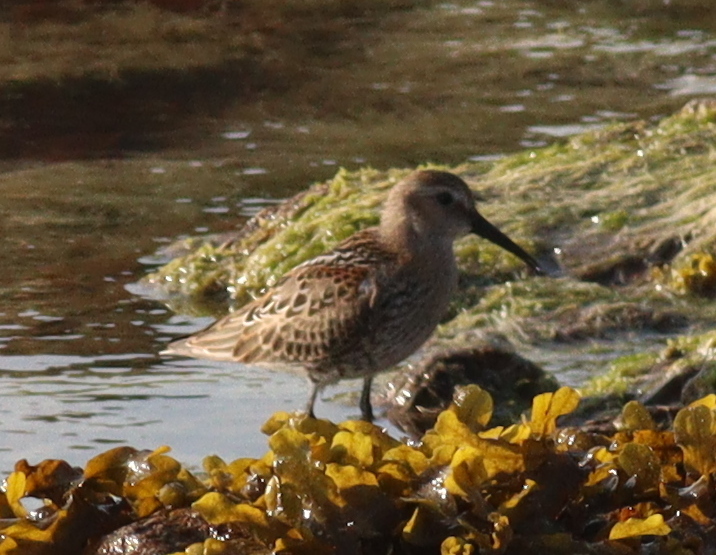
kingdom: Animalia
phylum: Chordata
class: Aves
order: Charadriiformes
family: Scolopacidae
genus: Calidris
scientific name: Calidris alpina
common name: Dunlin
